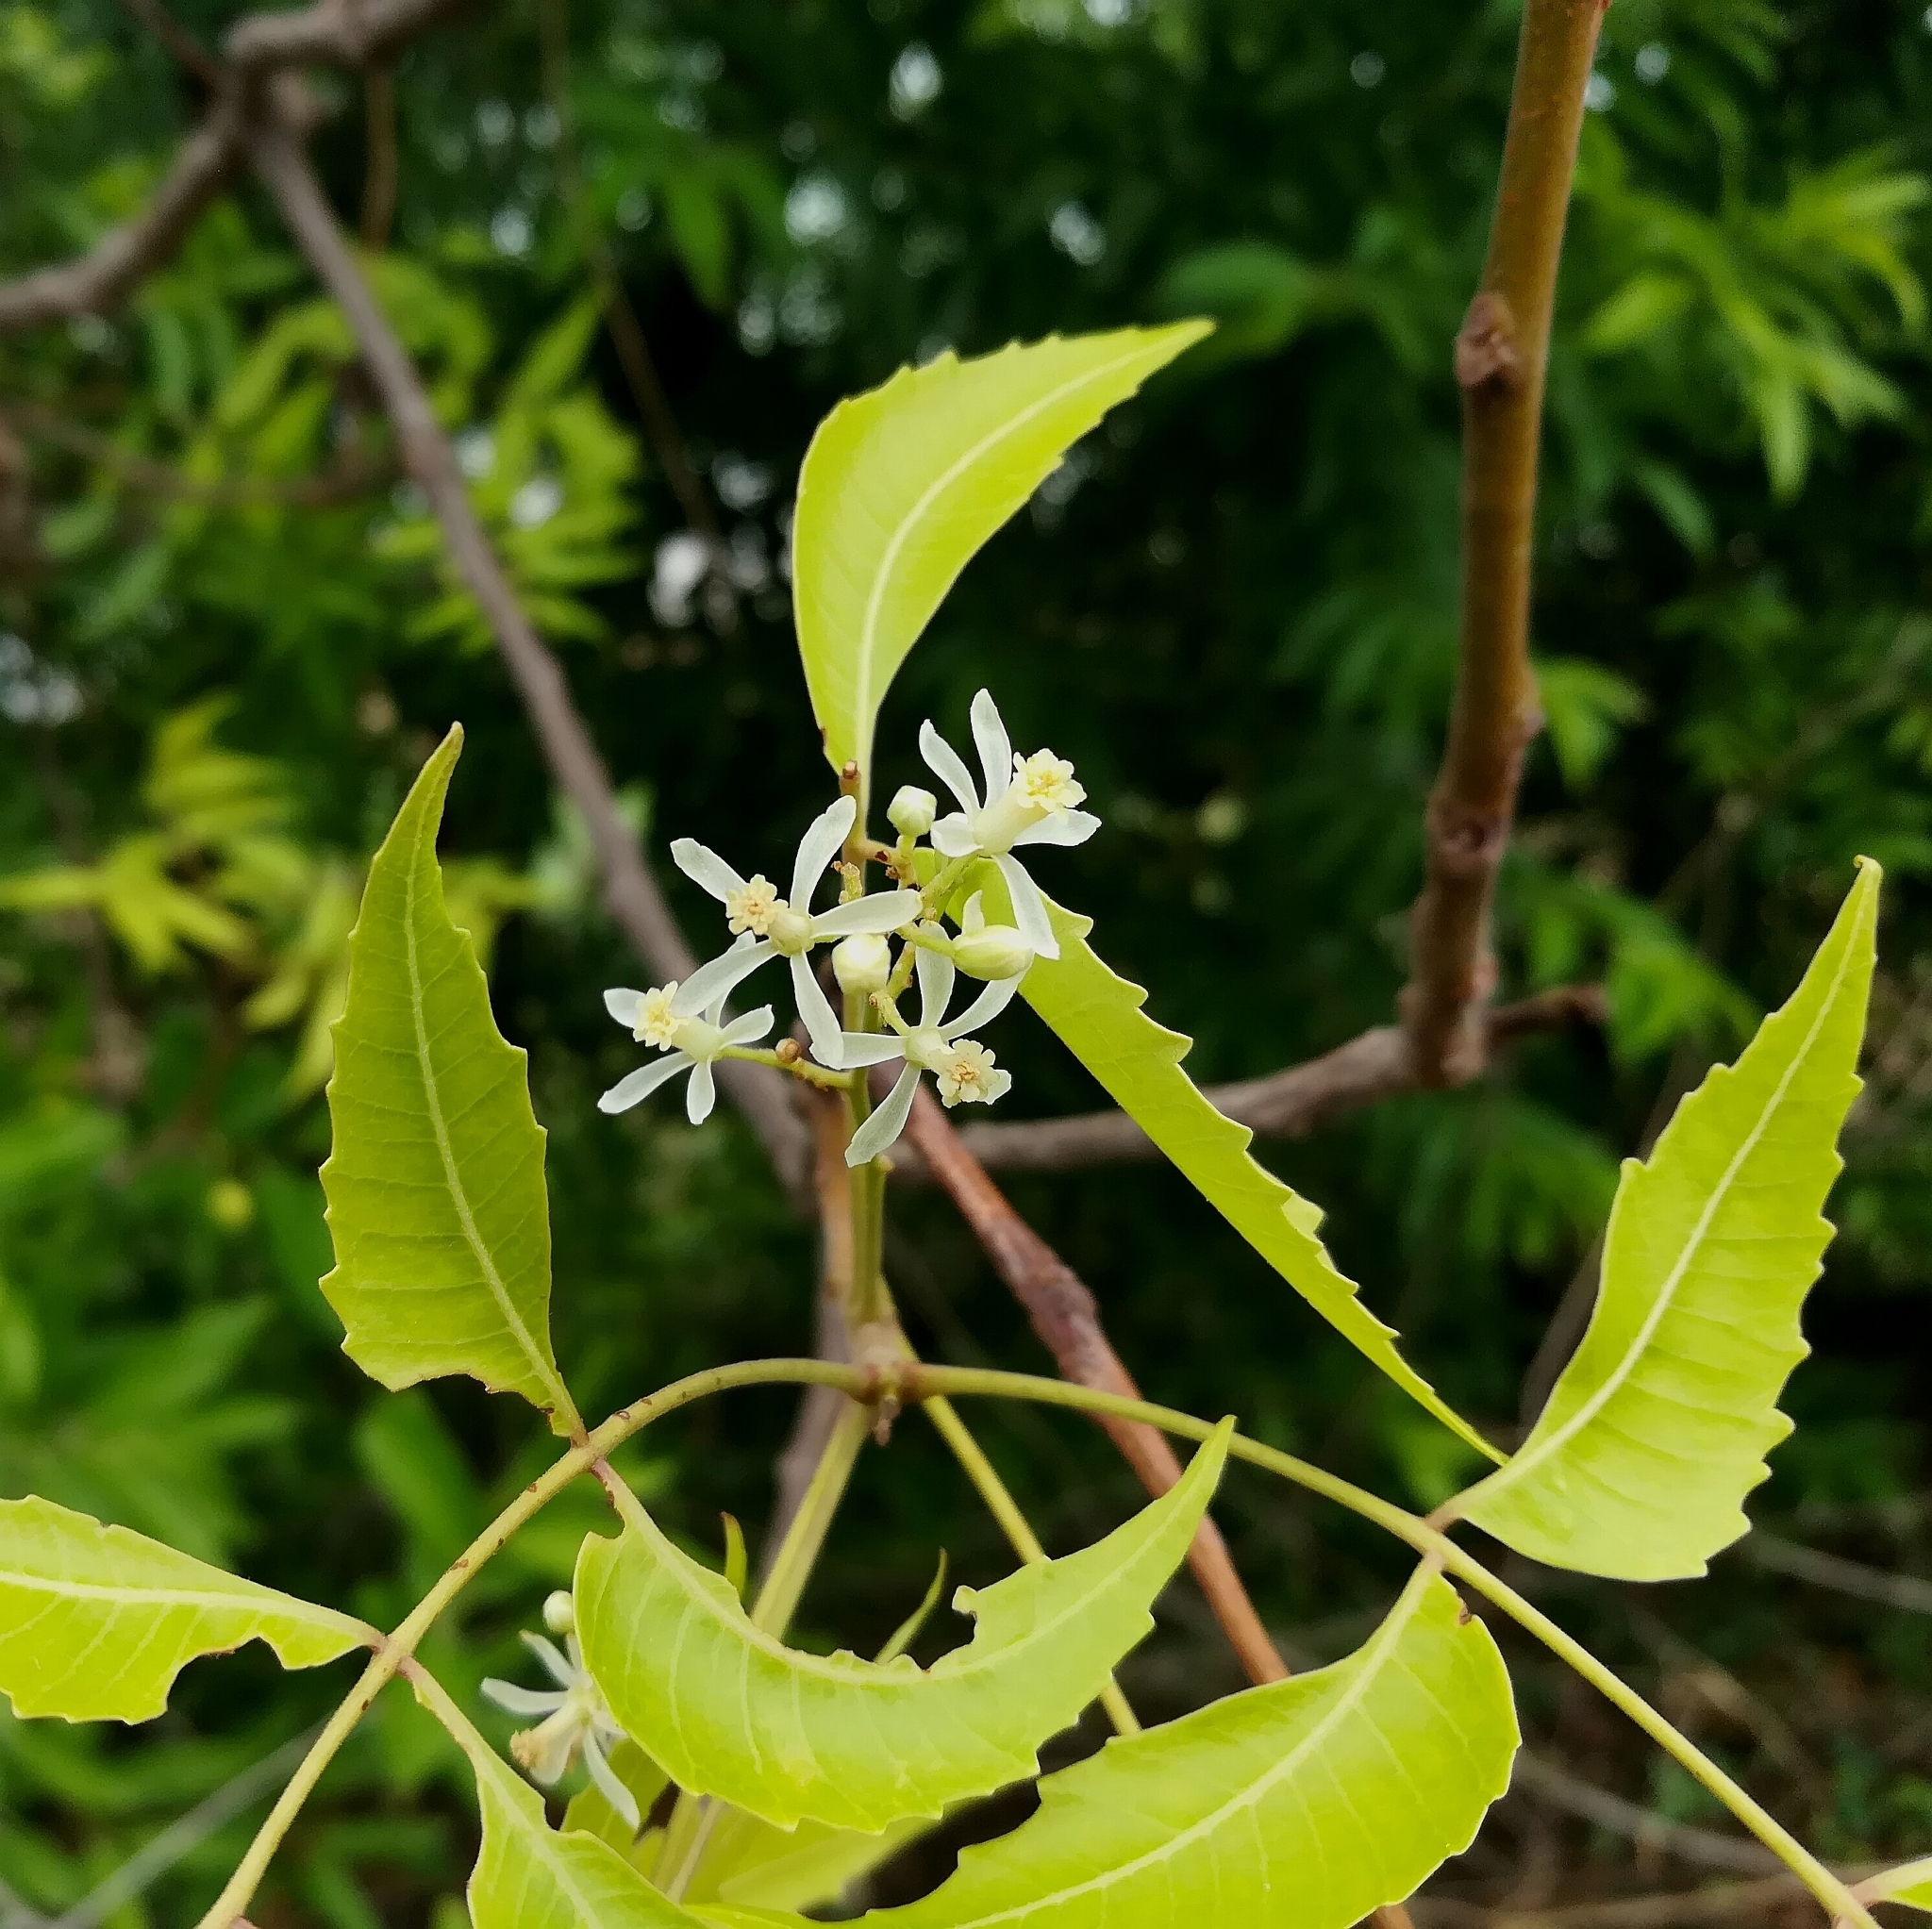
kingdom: Plantae
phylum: Tracheophyta
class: Magnoliopsida
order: Sapindales
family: Meliaceae
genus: Azadirachta
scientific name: Azadirachta indica
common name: Neem
